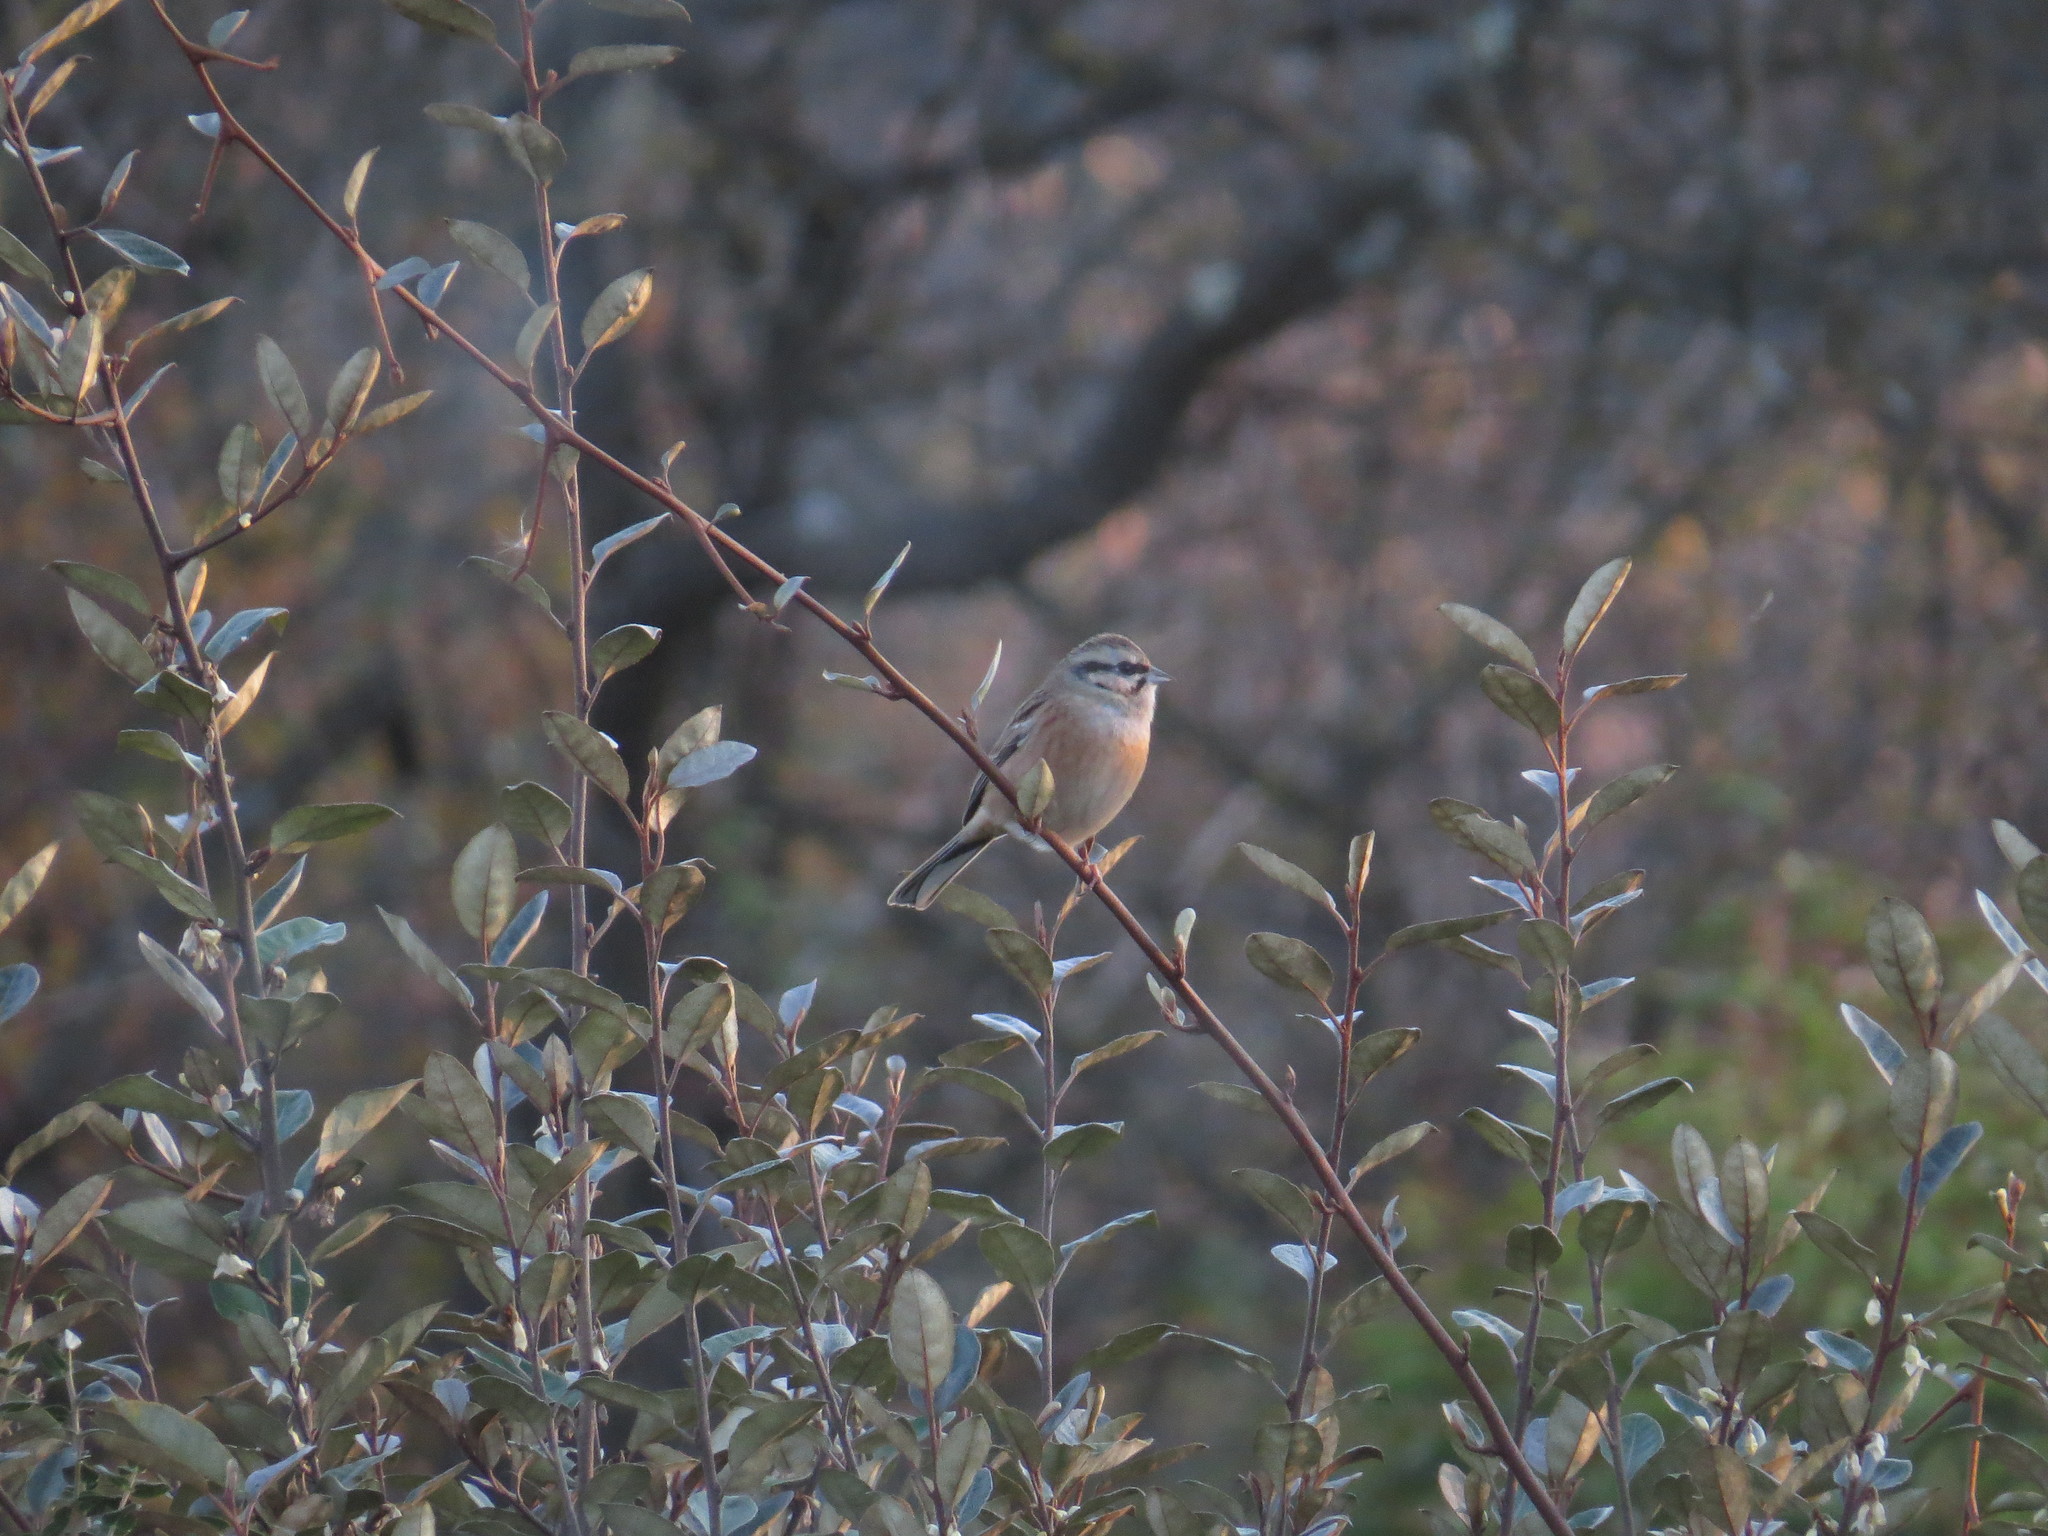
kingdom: Animalia
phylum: Chordata
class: Aves
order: Passeriformes
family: Emberizidae
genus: Emberiza
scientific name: Emberiza cia
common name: Rock bunting
